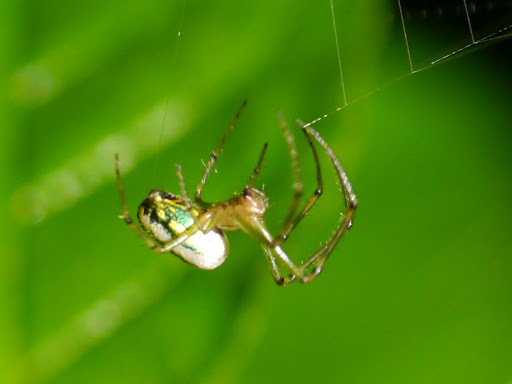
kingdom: Animalia
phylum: Arthropoda
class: Arachnida
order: Araneae
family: Tetragnathidae
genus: Leucauge
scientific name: Leucauge venusta
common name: Longjawed orb weavers
